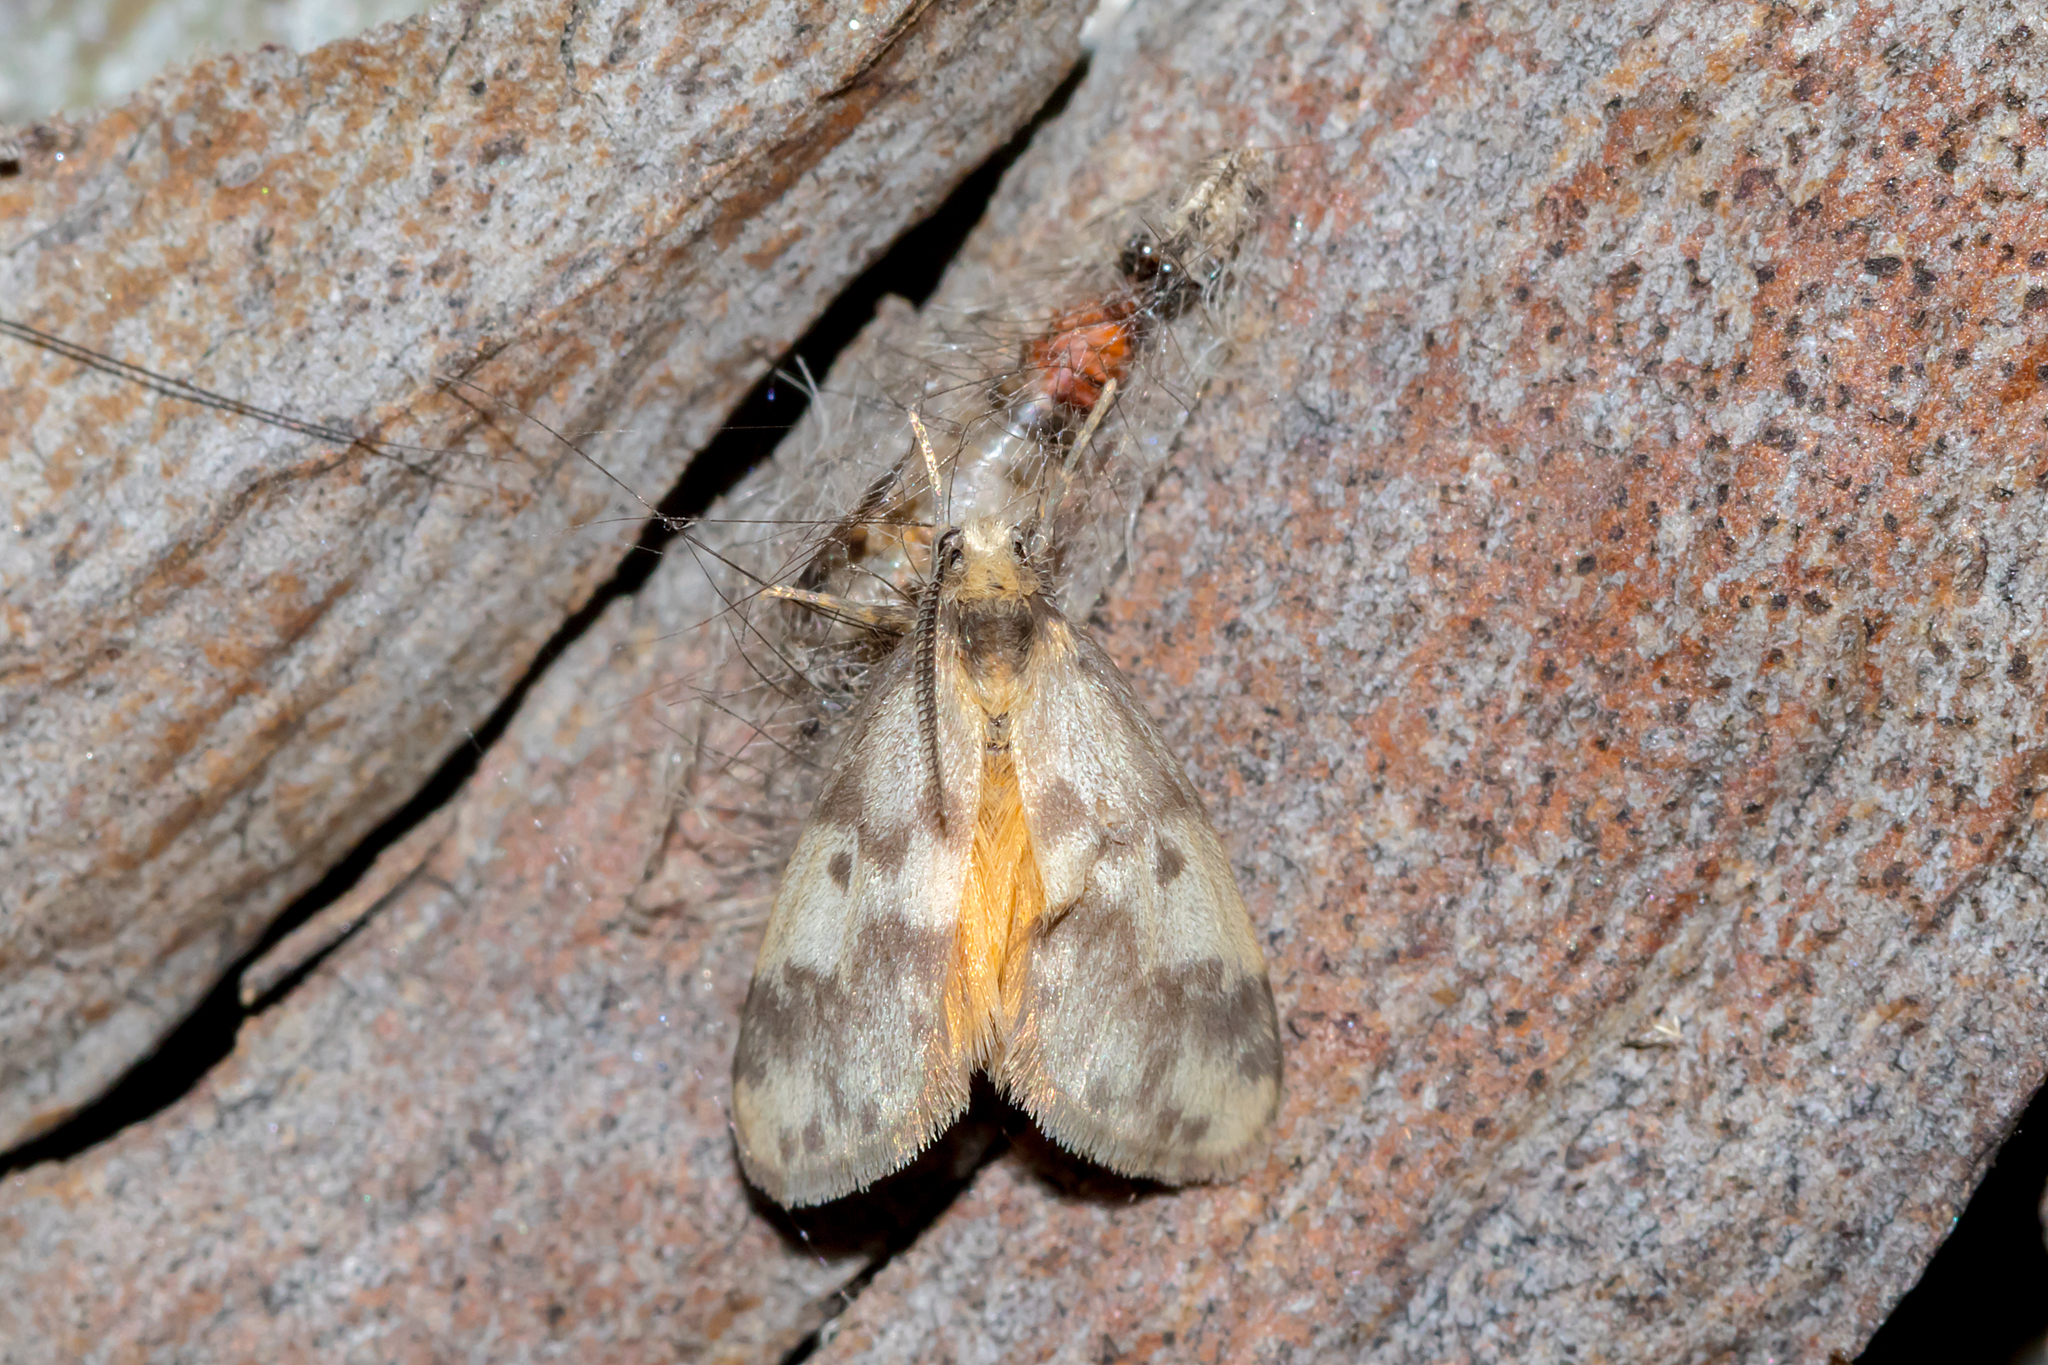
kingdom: Animalia
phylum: Arthropoda
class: Insecta
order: Lepidoptera
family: Erebidae
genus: Anestia
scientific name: Anestia
